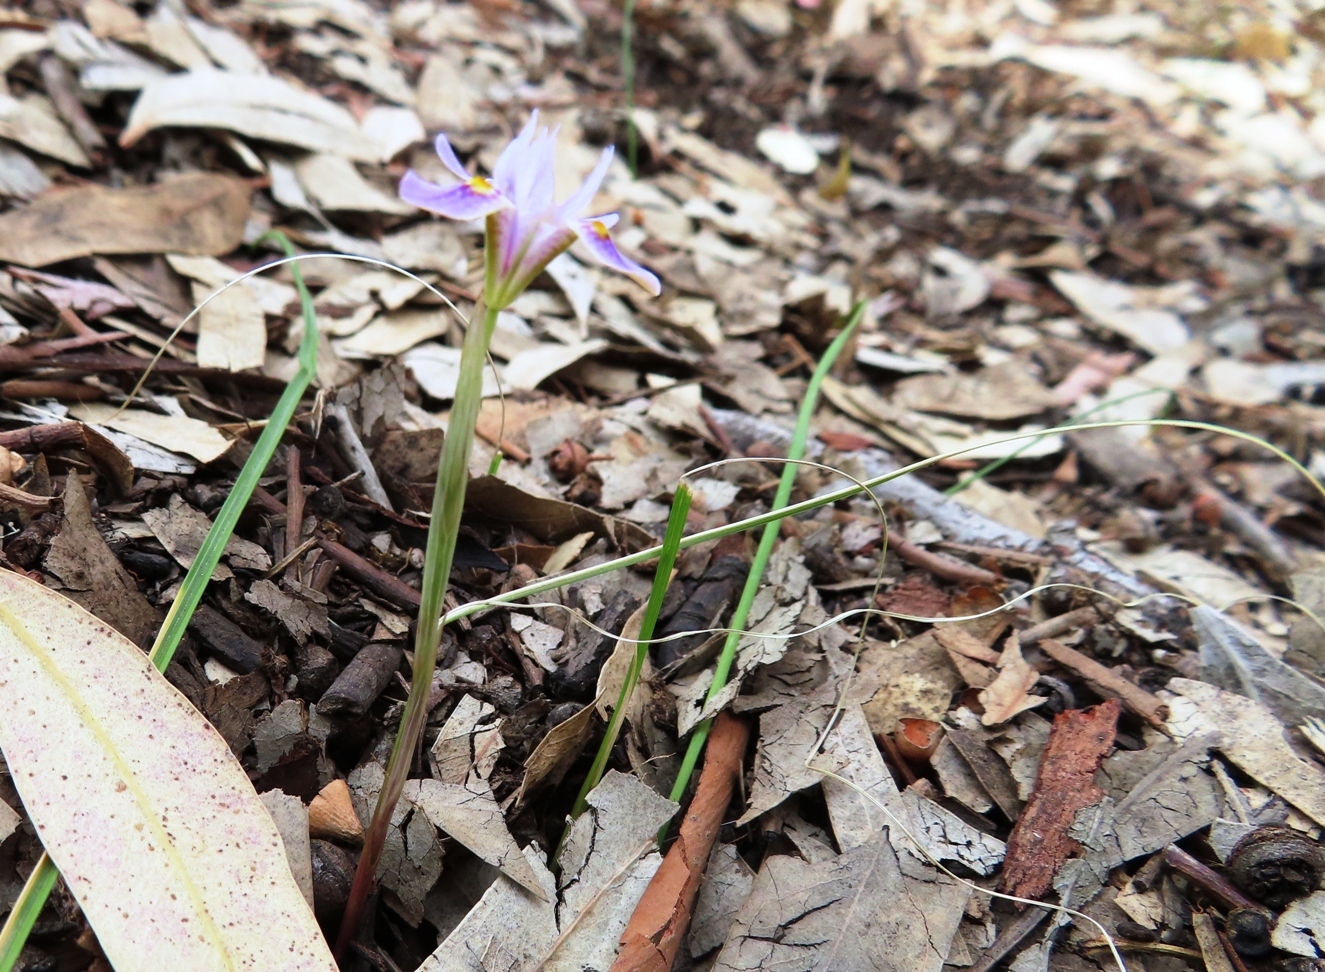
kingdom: Plantae
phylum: Tracheophyta
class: Liliopsida
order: Asparagales
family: Iridaceae
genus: Moraea
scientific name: Moraea setifolia
